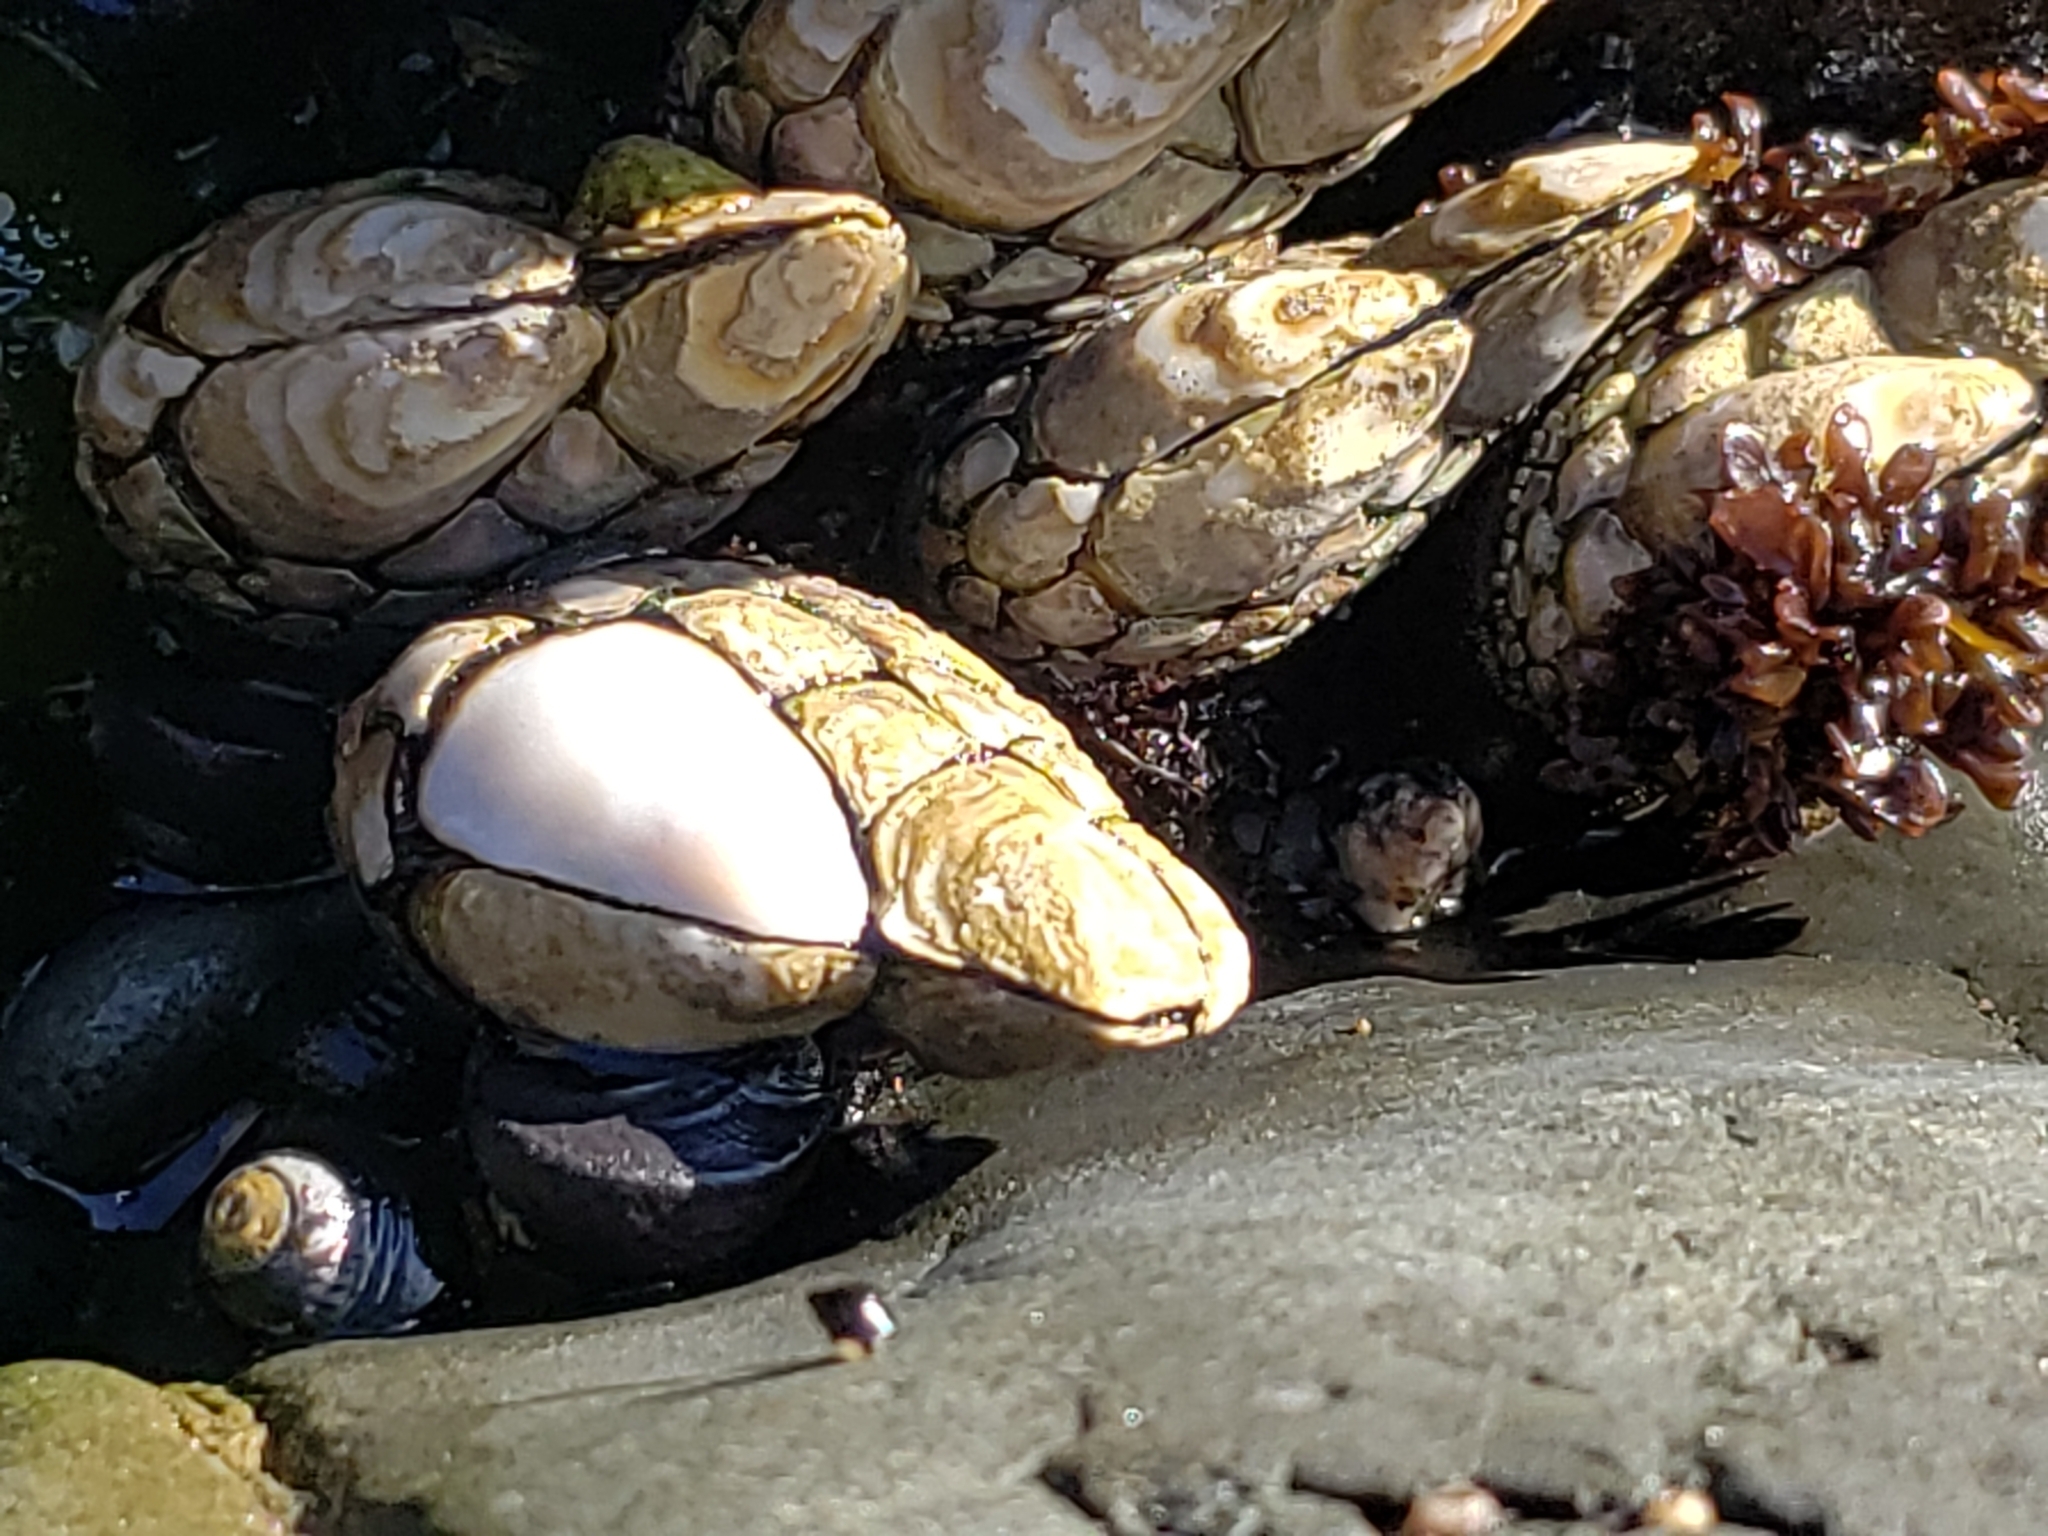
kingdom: Animalia
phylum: Arthropoda
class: Maxillopoda
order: Pedunculata
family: Pollicipedidae
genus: Pollicipes
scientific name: Pollicipes polymerus
